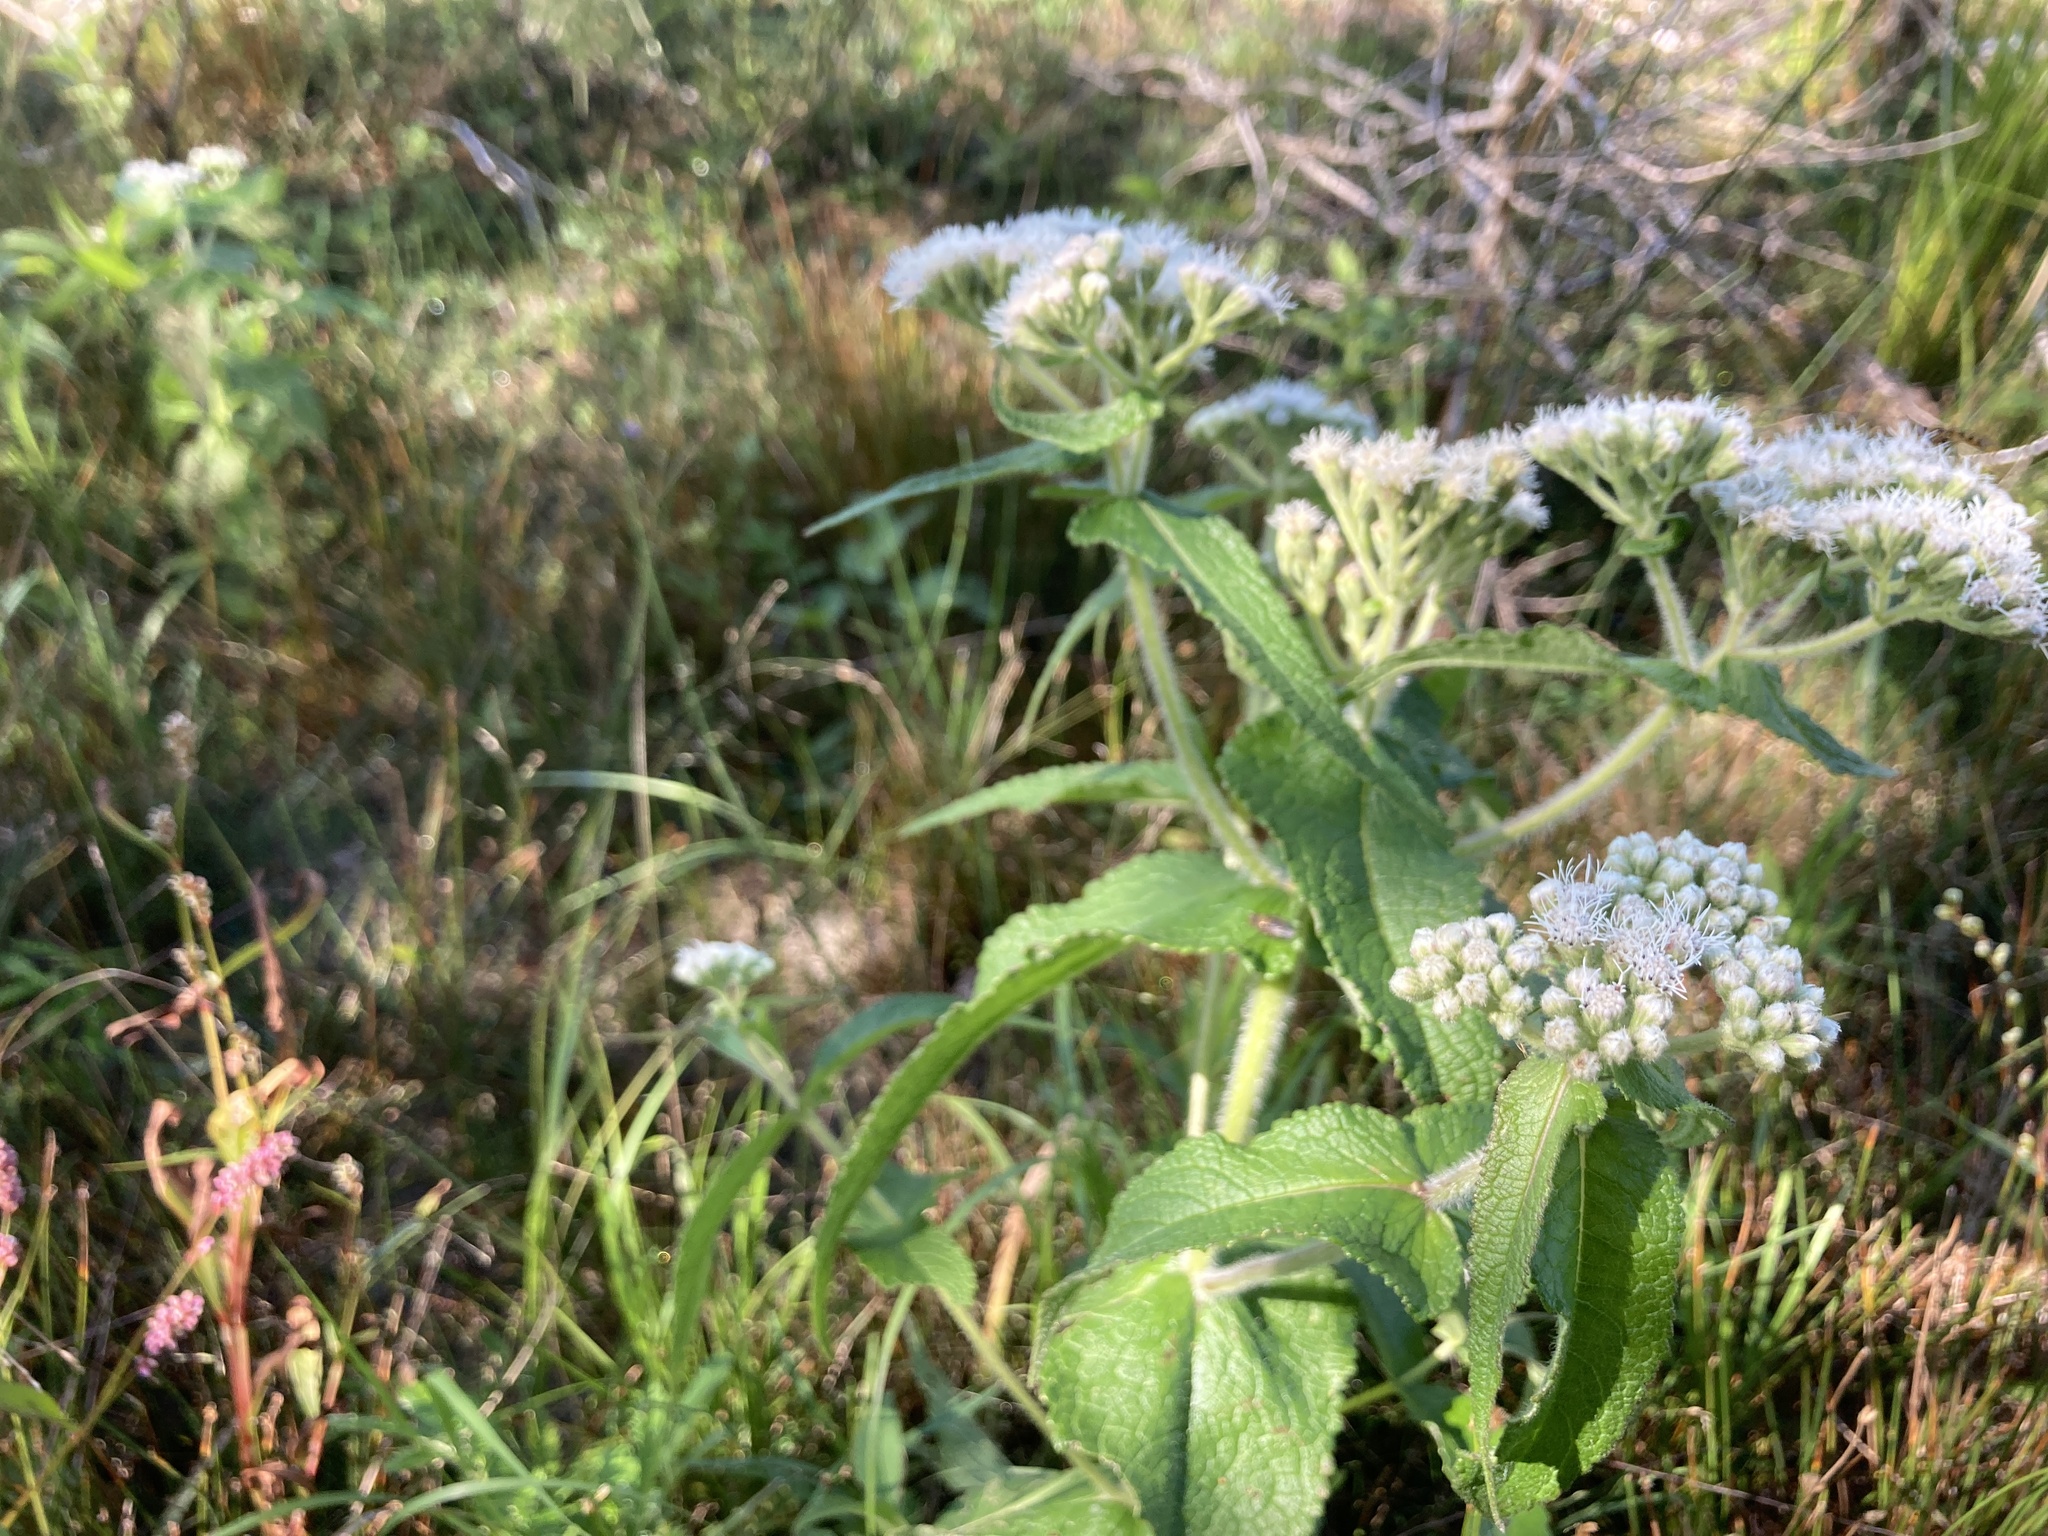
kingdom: Plantae
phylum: Tracheophyta
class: Magnoliopsida
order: Asterales
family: Asteraceae
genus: Eupatorium
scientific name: Eupatorium perfoliatum
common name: Boneset
